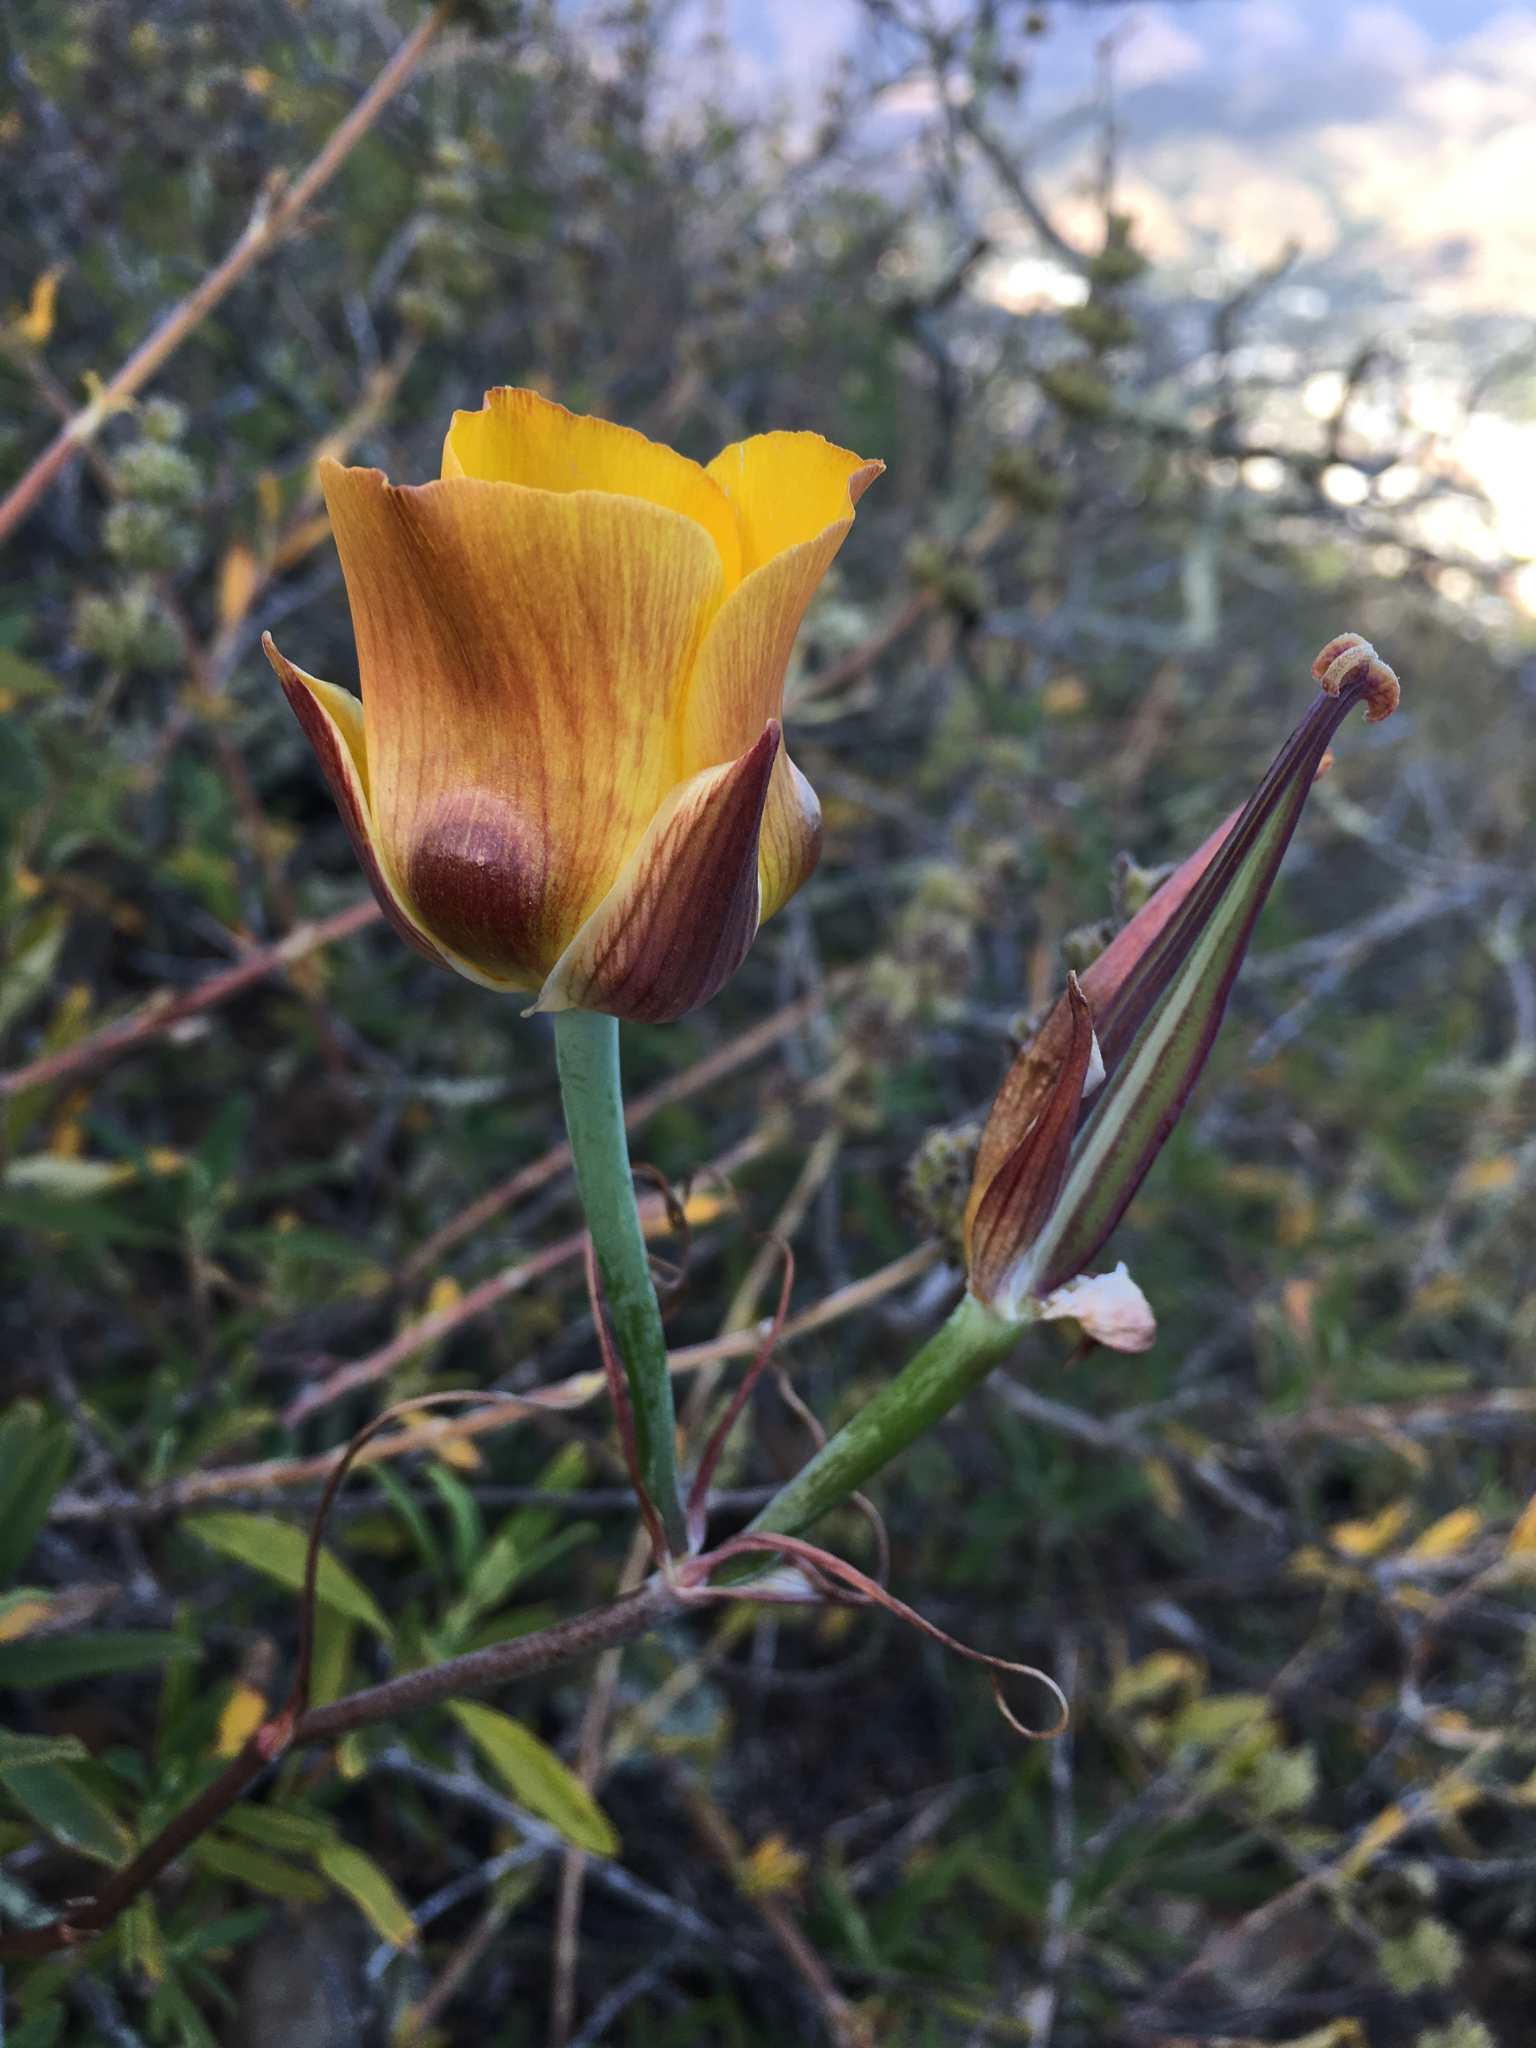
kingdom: Plantae
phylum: Tracheophyta
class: Liliopsida
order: Liliales
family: Liliaceae
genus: Calochortus
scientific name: Calochortus clavatus
